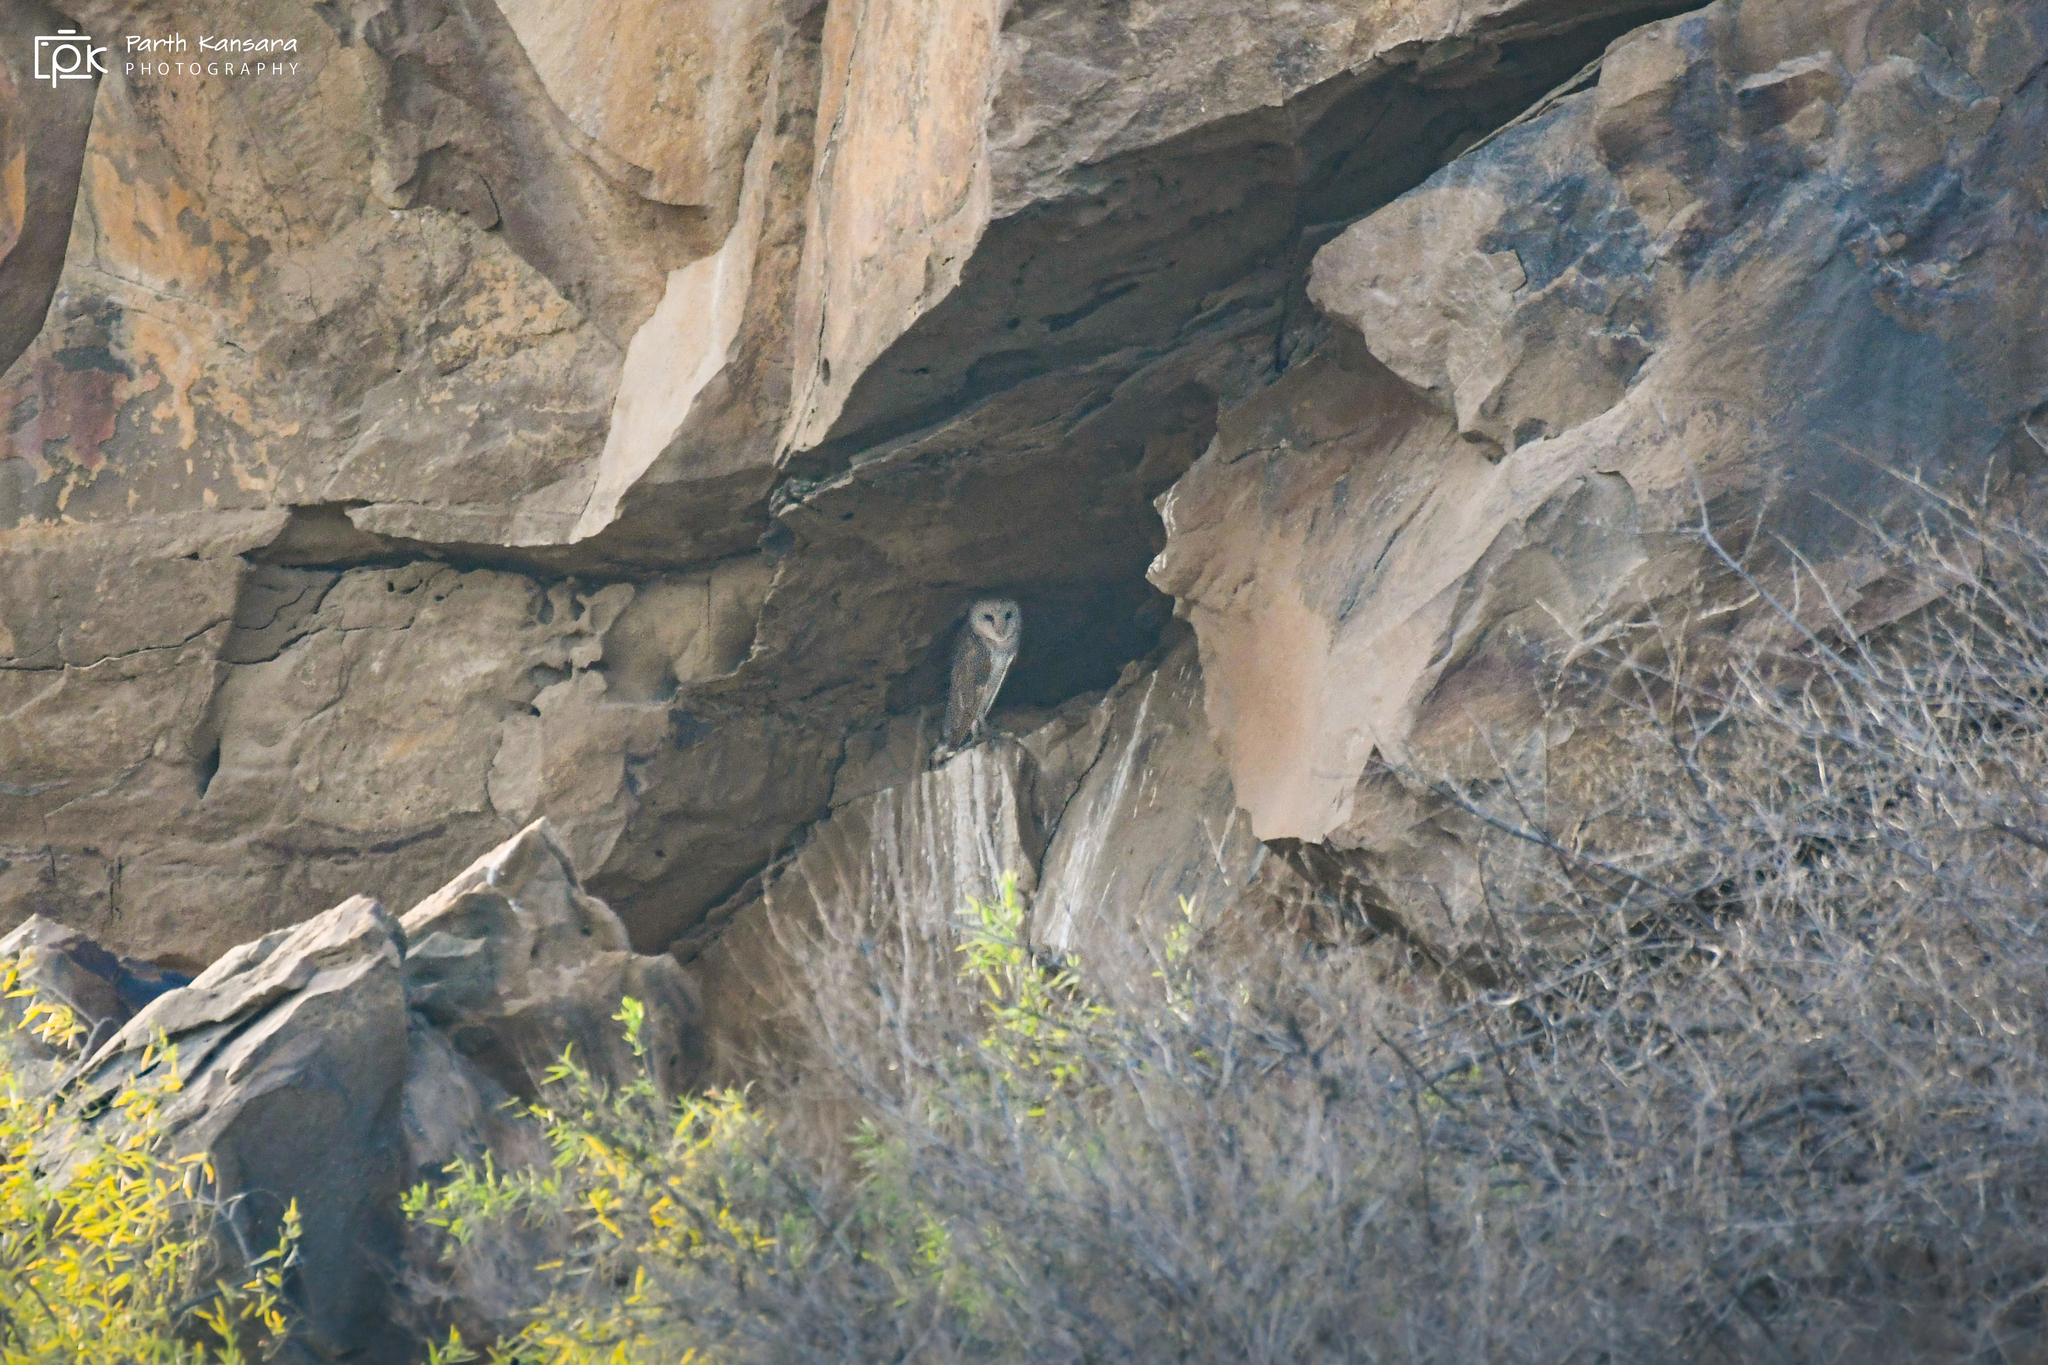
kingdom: Animalia
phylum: Chordata
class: Aves
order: Strigiformes
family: Tytonidae
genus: Tyto
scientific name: Tyto alba
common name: Barn owl
